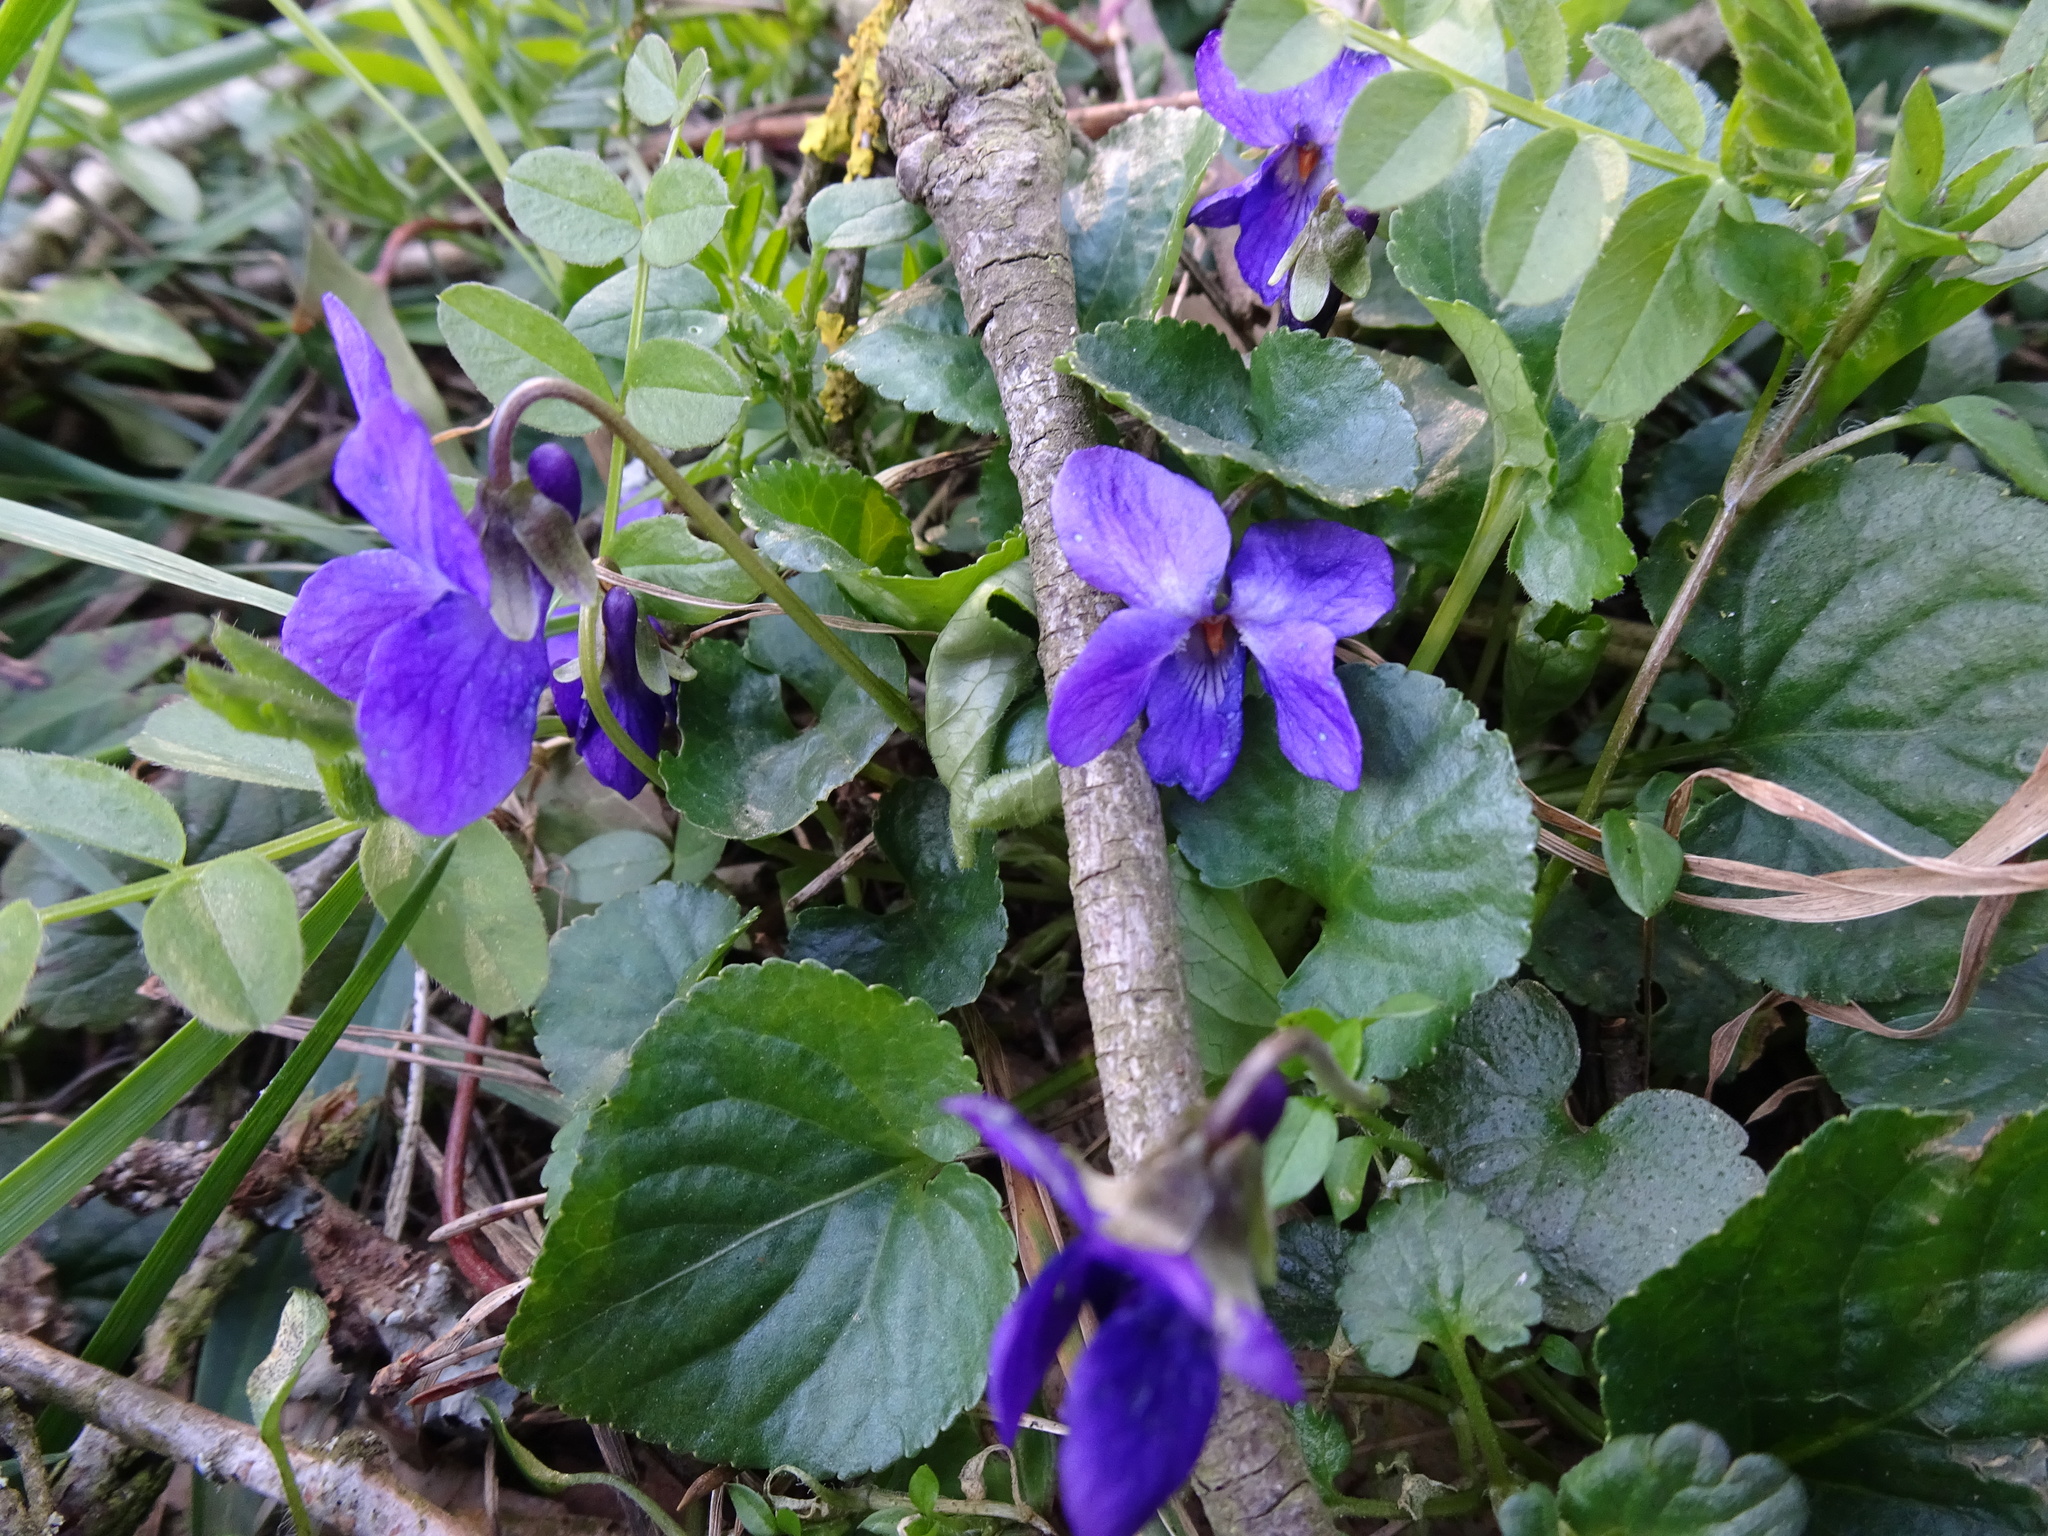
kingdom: Plantae
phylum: Tracheophyta
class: Magnoliopsida
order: Malpighiales
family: Violaceae
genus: Viola
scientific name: Viola odorata
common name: Sweet violet
